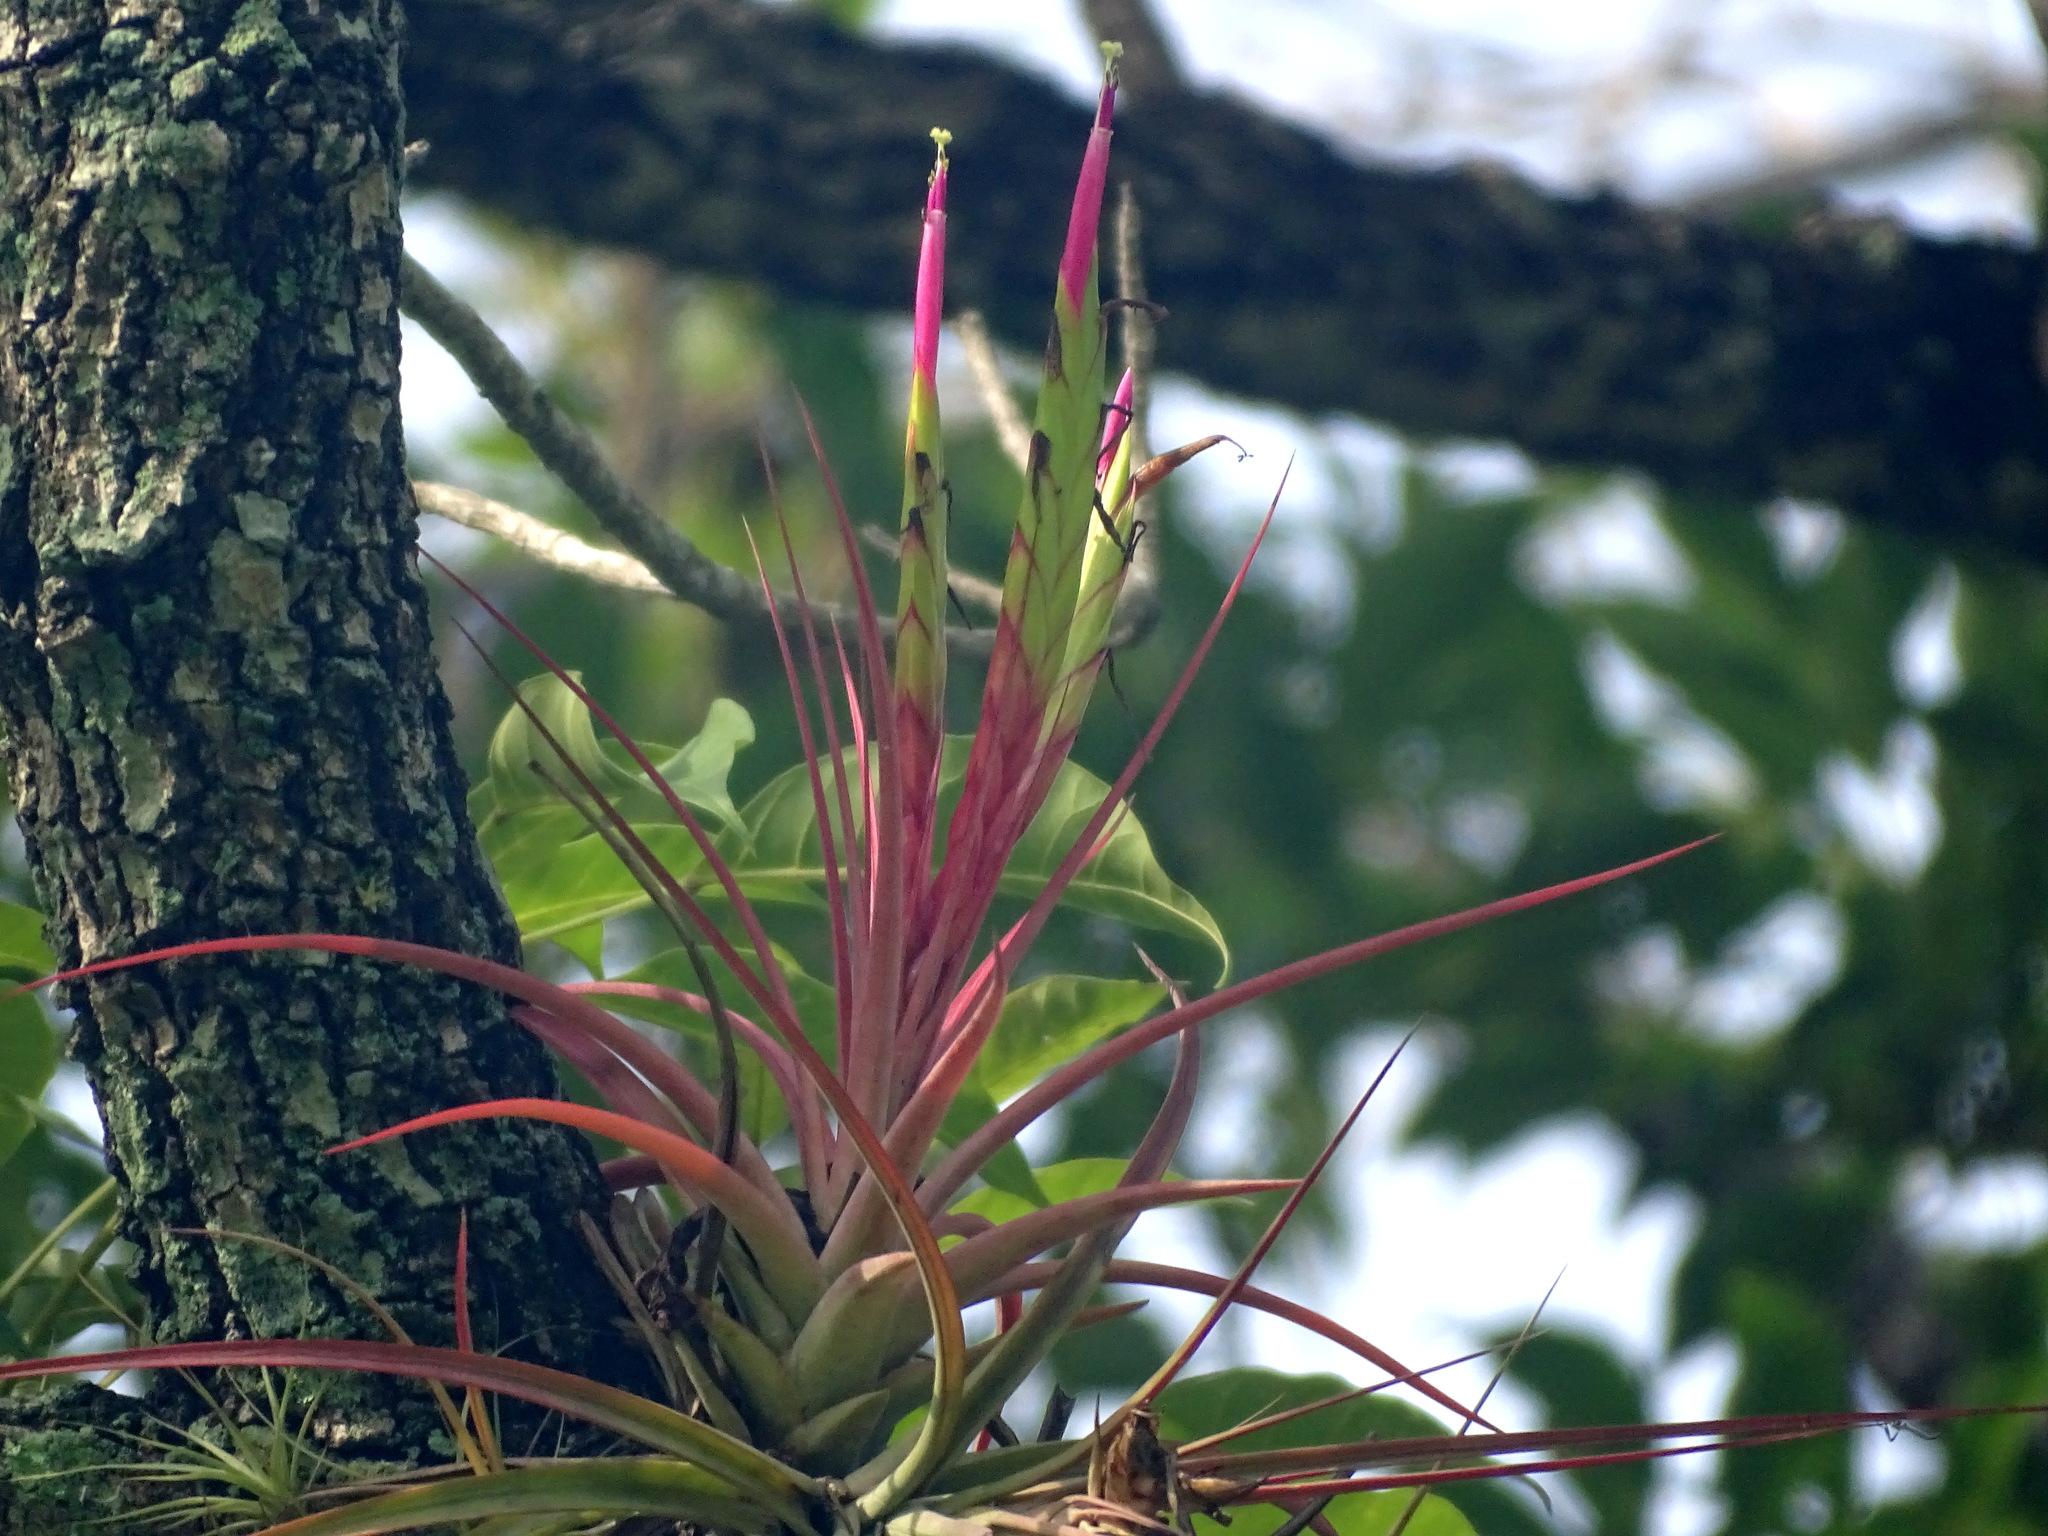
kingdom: Plantae
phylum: Tracheophyta
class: Liliopsida
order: Poales
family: Bromeliaceae
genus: Tillandsia
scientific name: Tillandsia concolor
